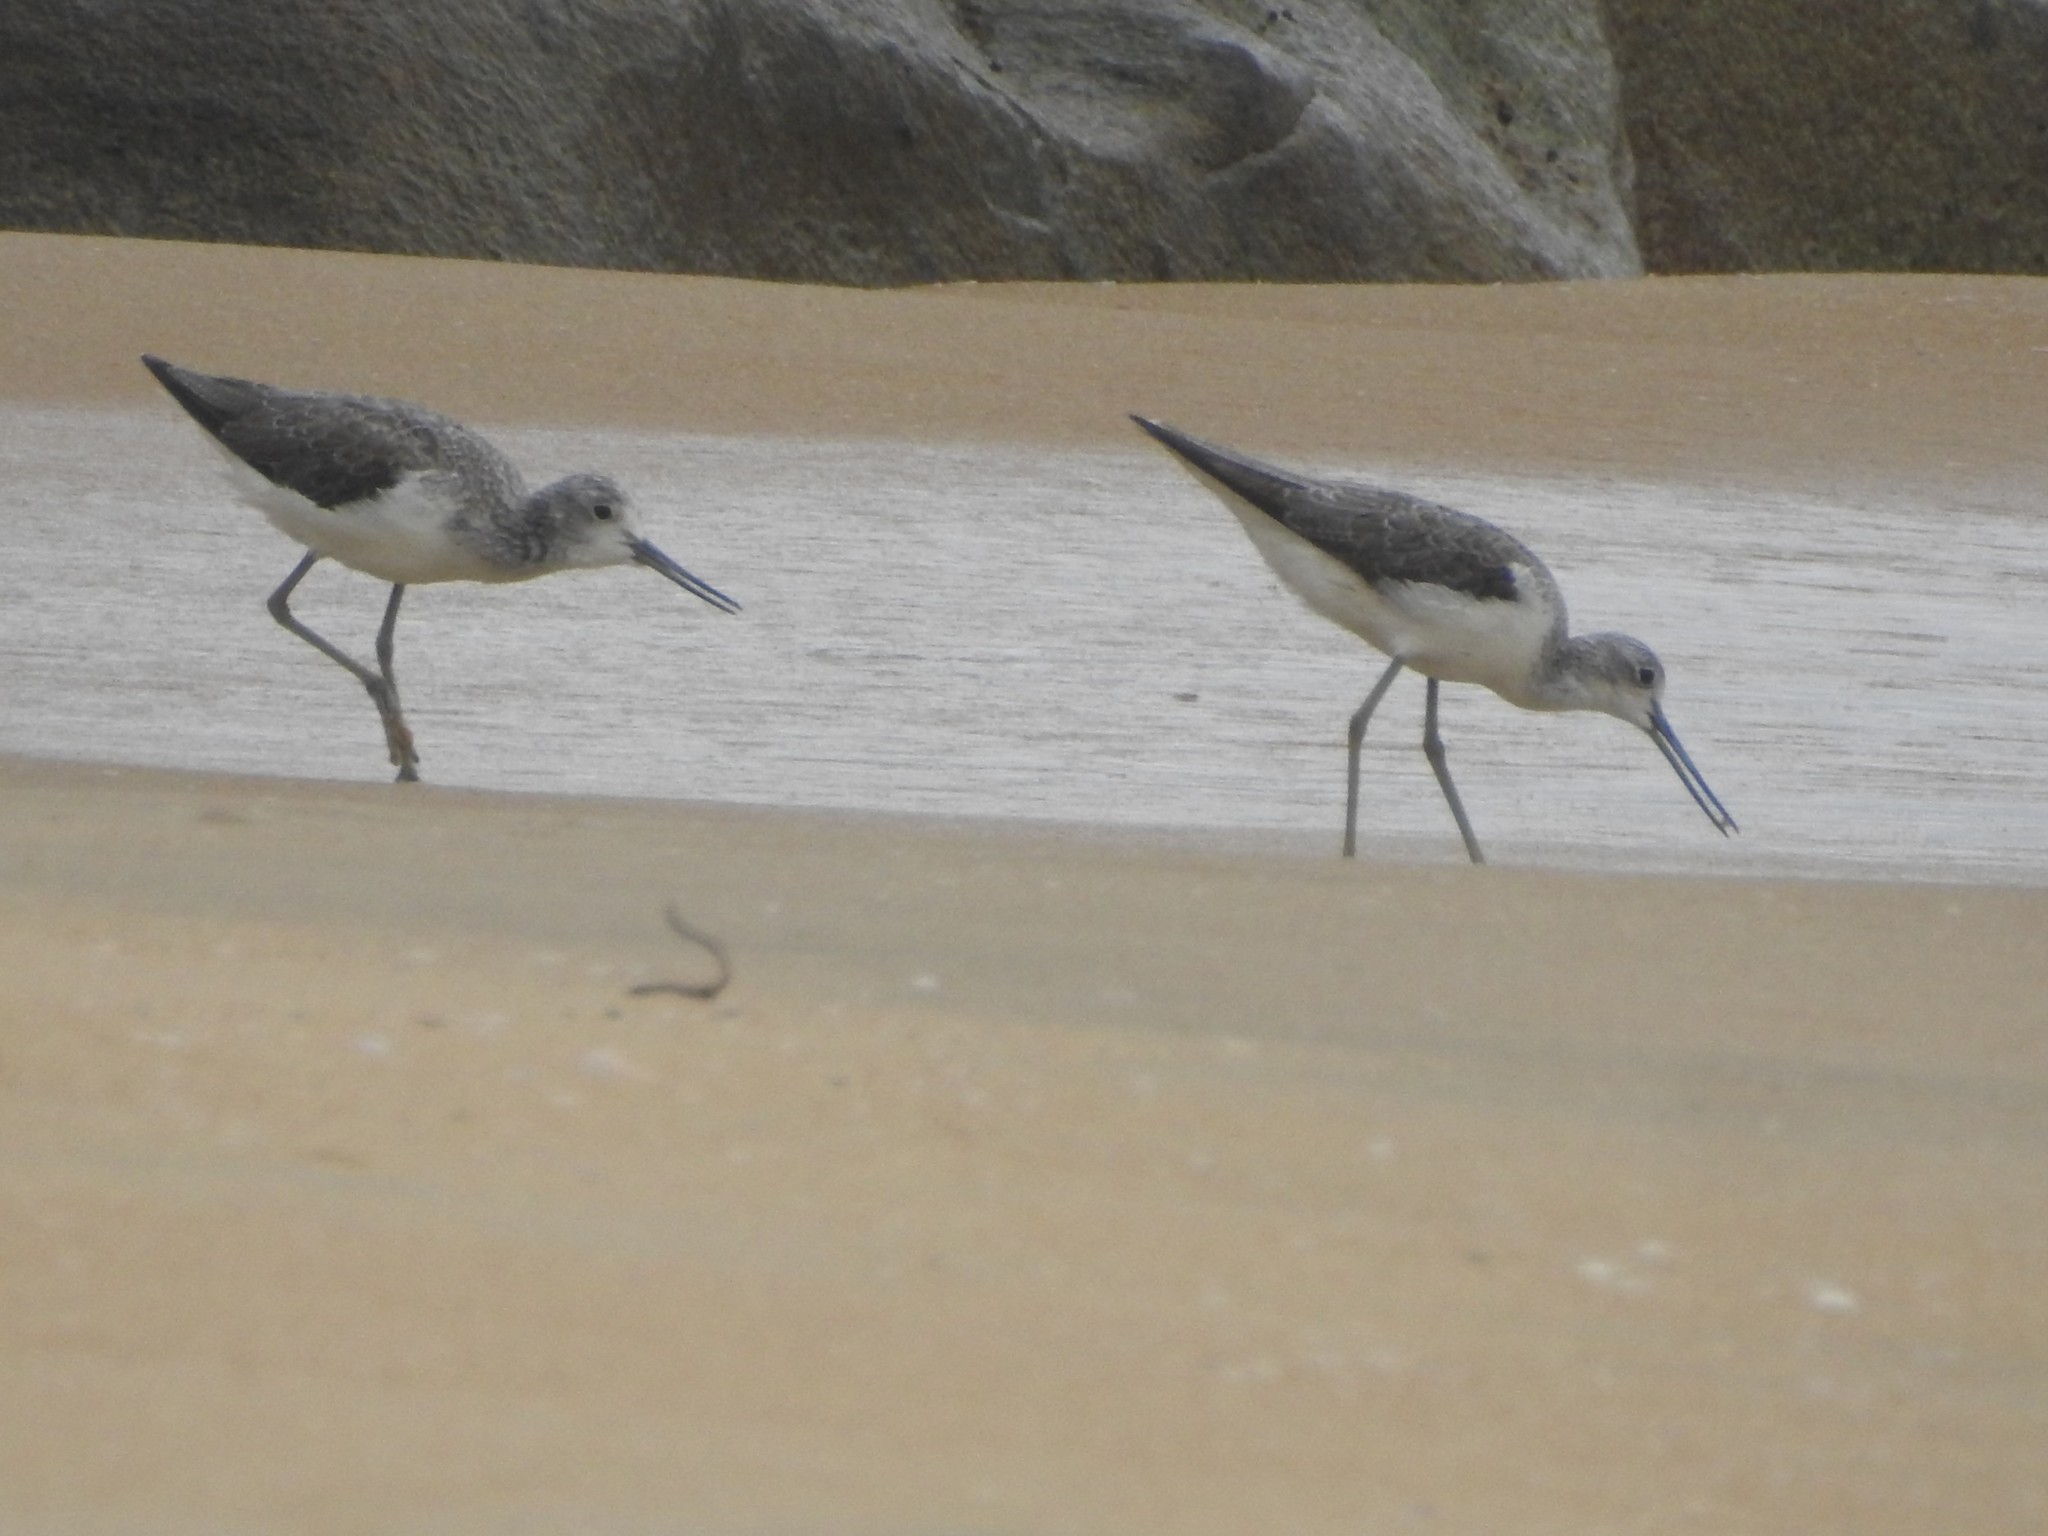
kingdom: Animalia
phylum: Chordata
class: Aves
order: Charadriiformes
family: Scolopacidae
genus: Tringa
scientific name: Tringa nebularia
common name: Common greenshank
